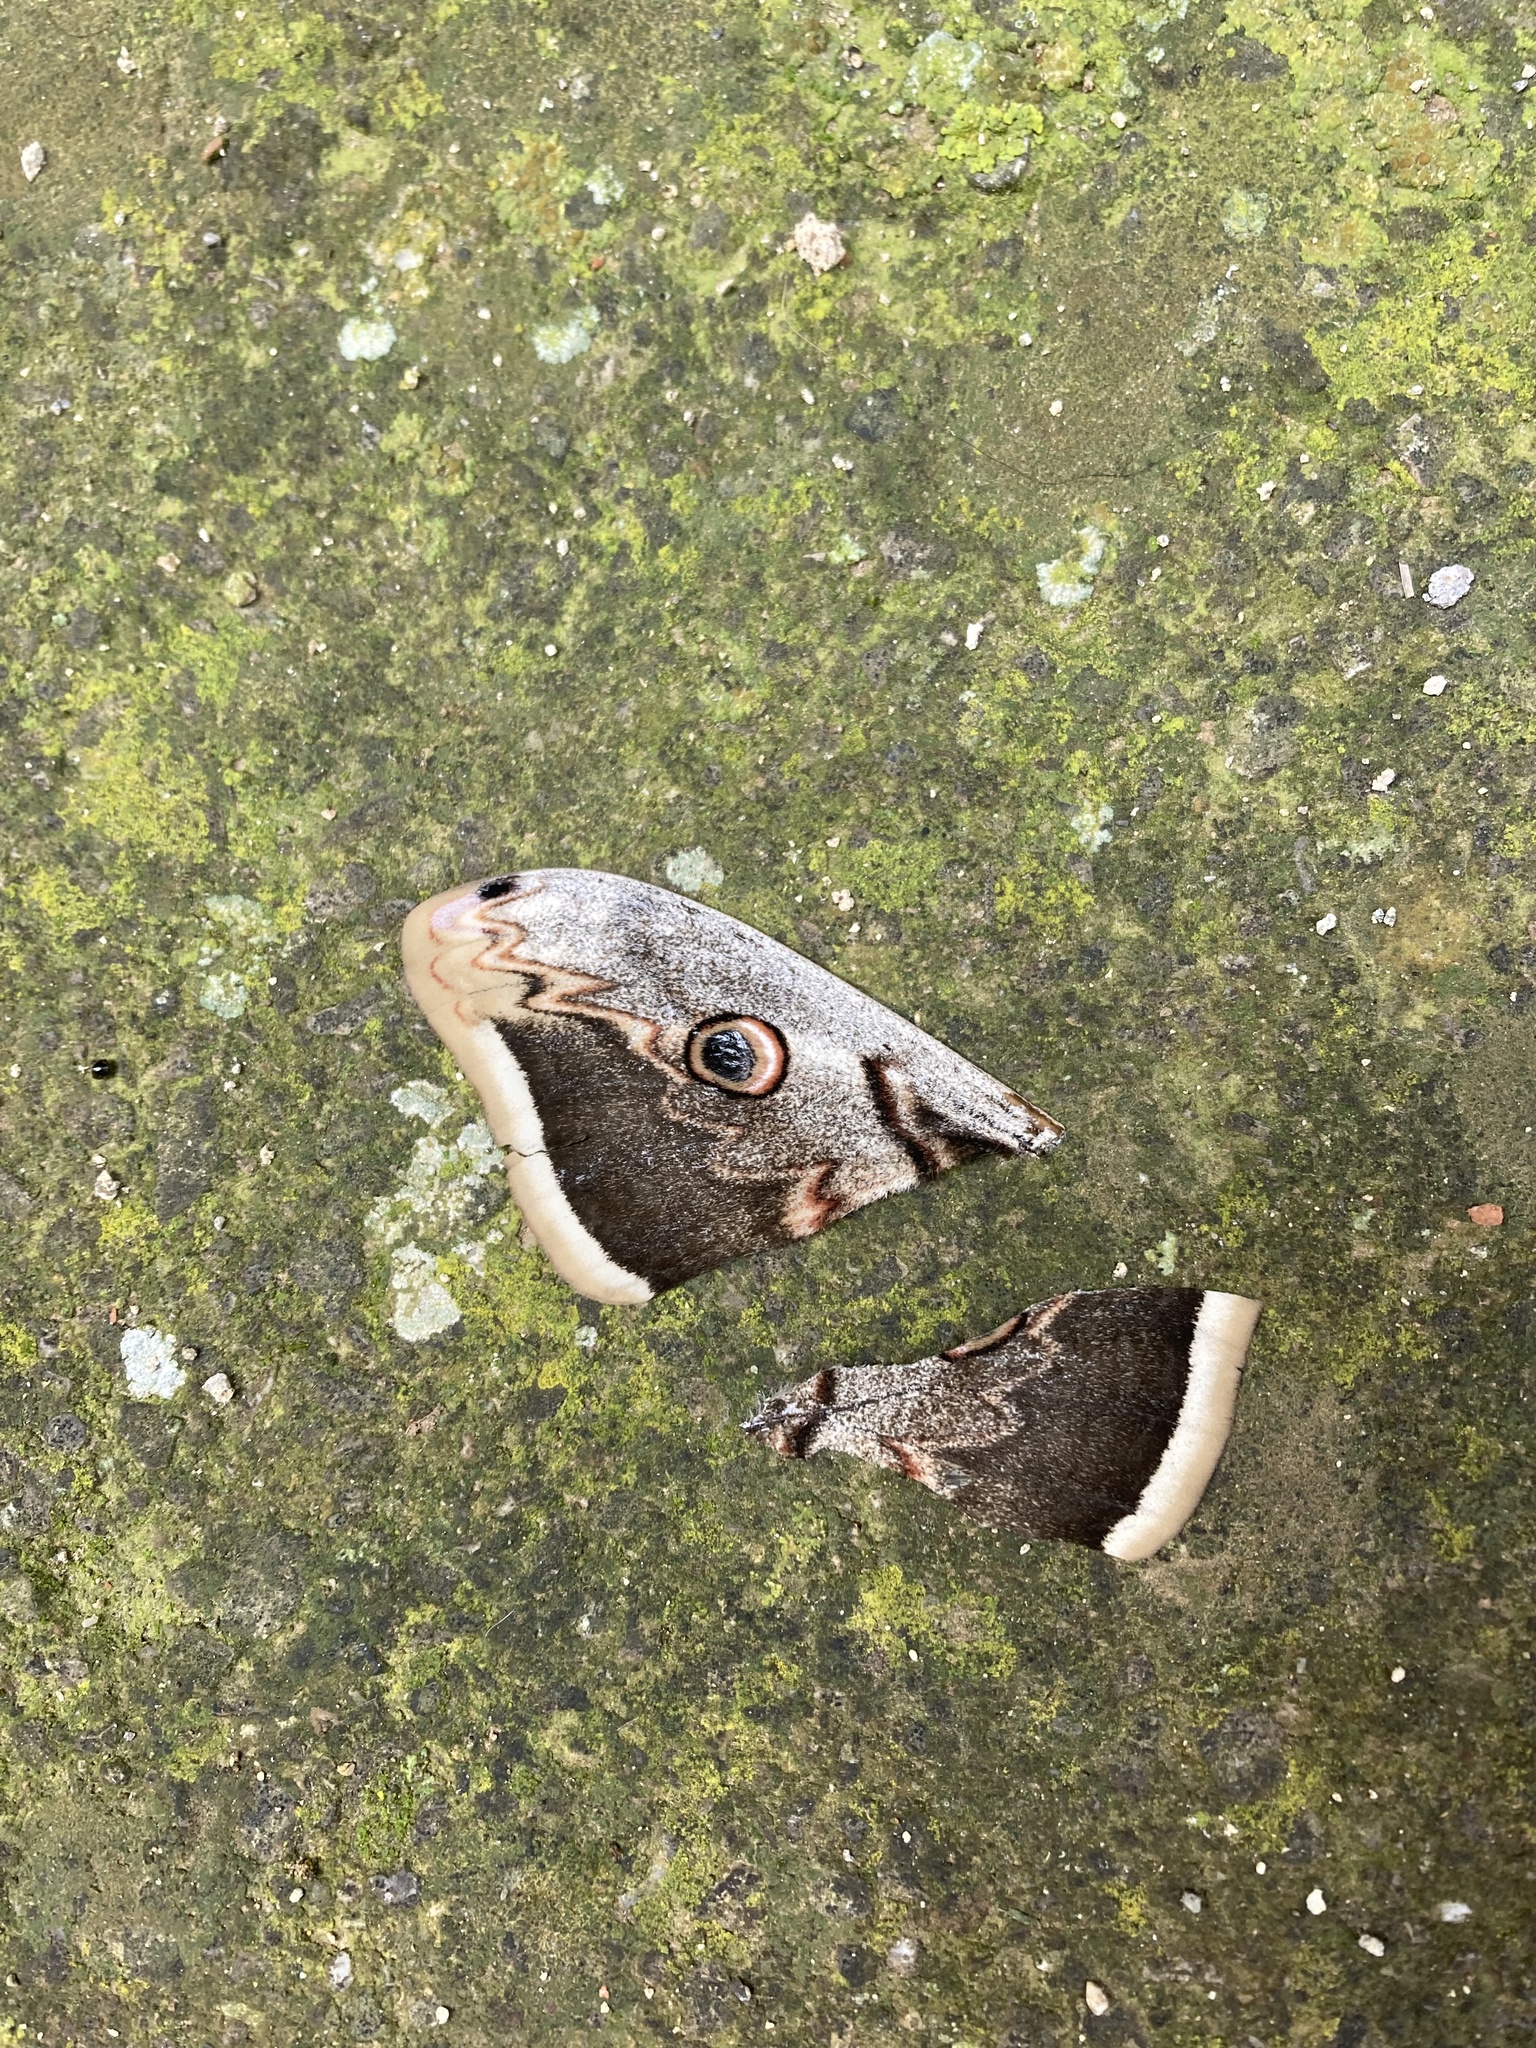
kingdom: Animalia
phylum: Arthropoda
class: Insecta
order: Lepidoptera
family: Saturniidae
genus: Saturnia
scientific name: Saturnia pyri
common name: Great peacock moth
